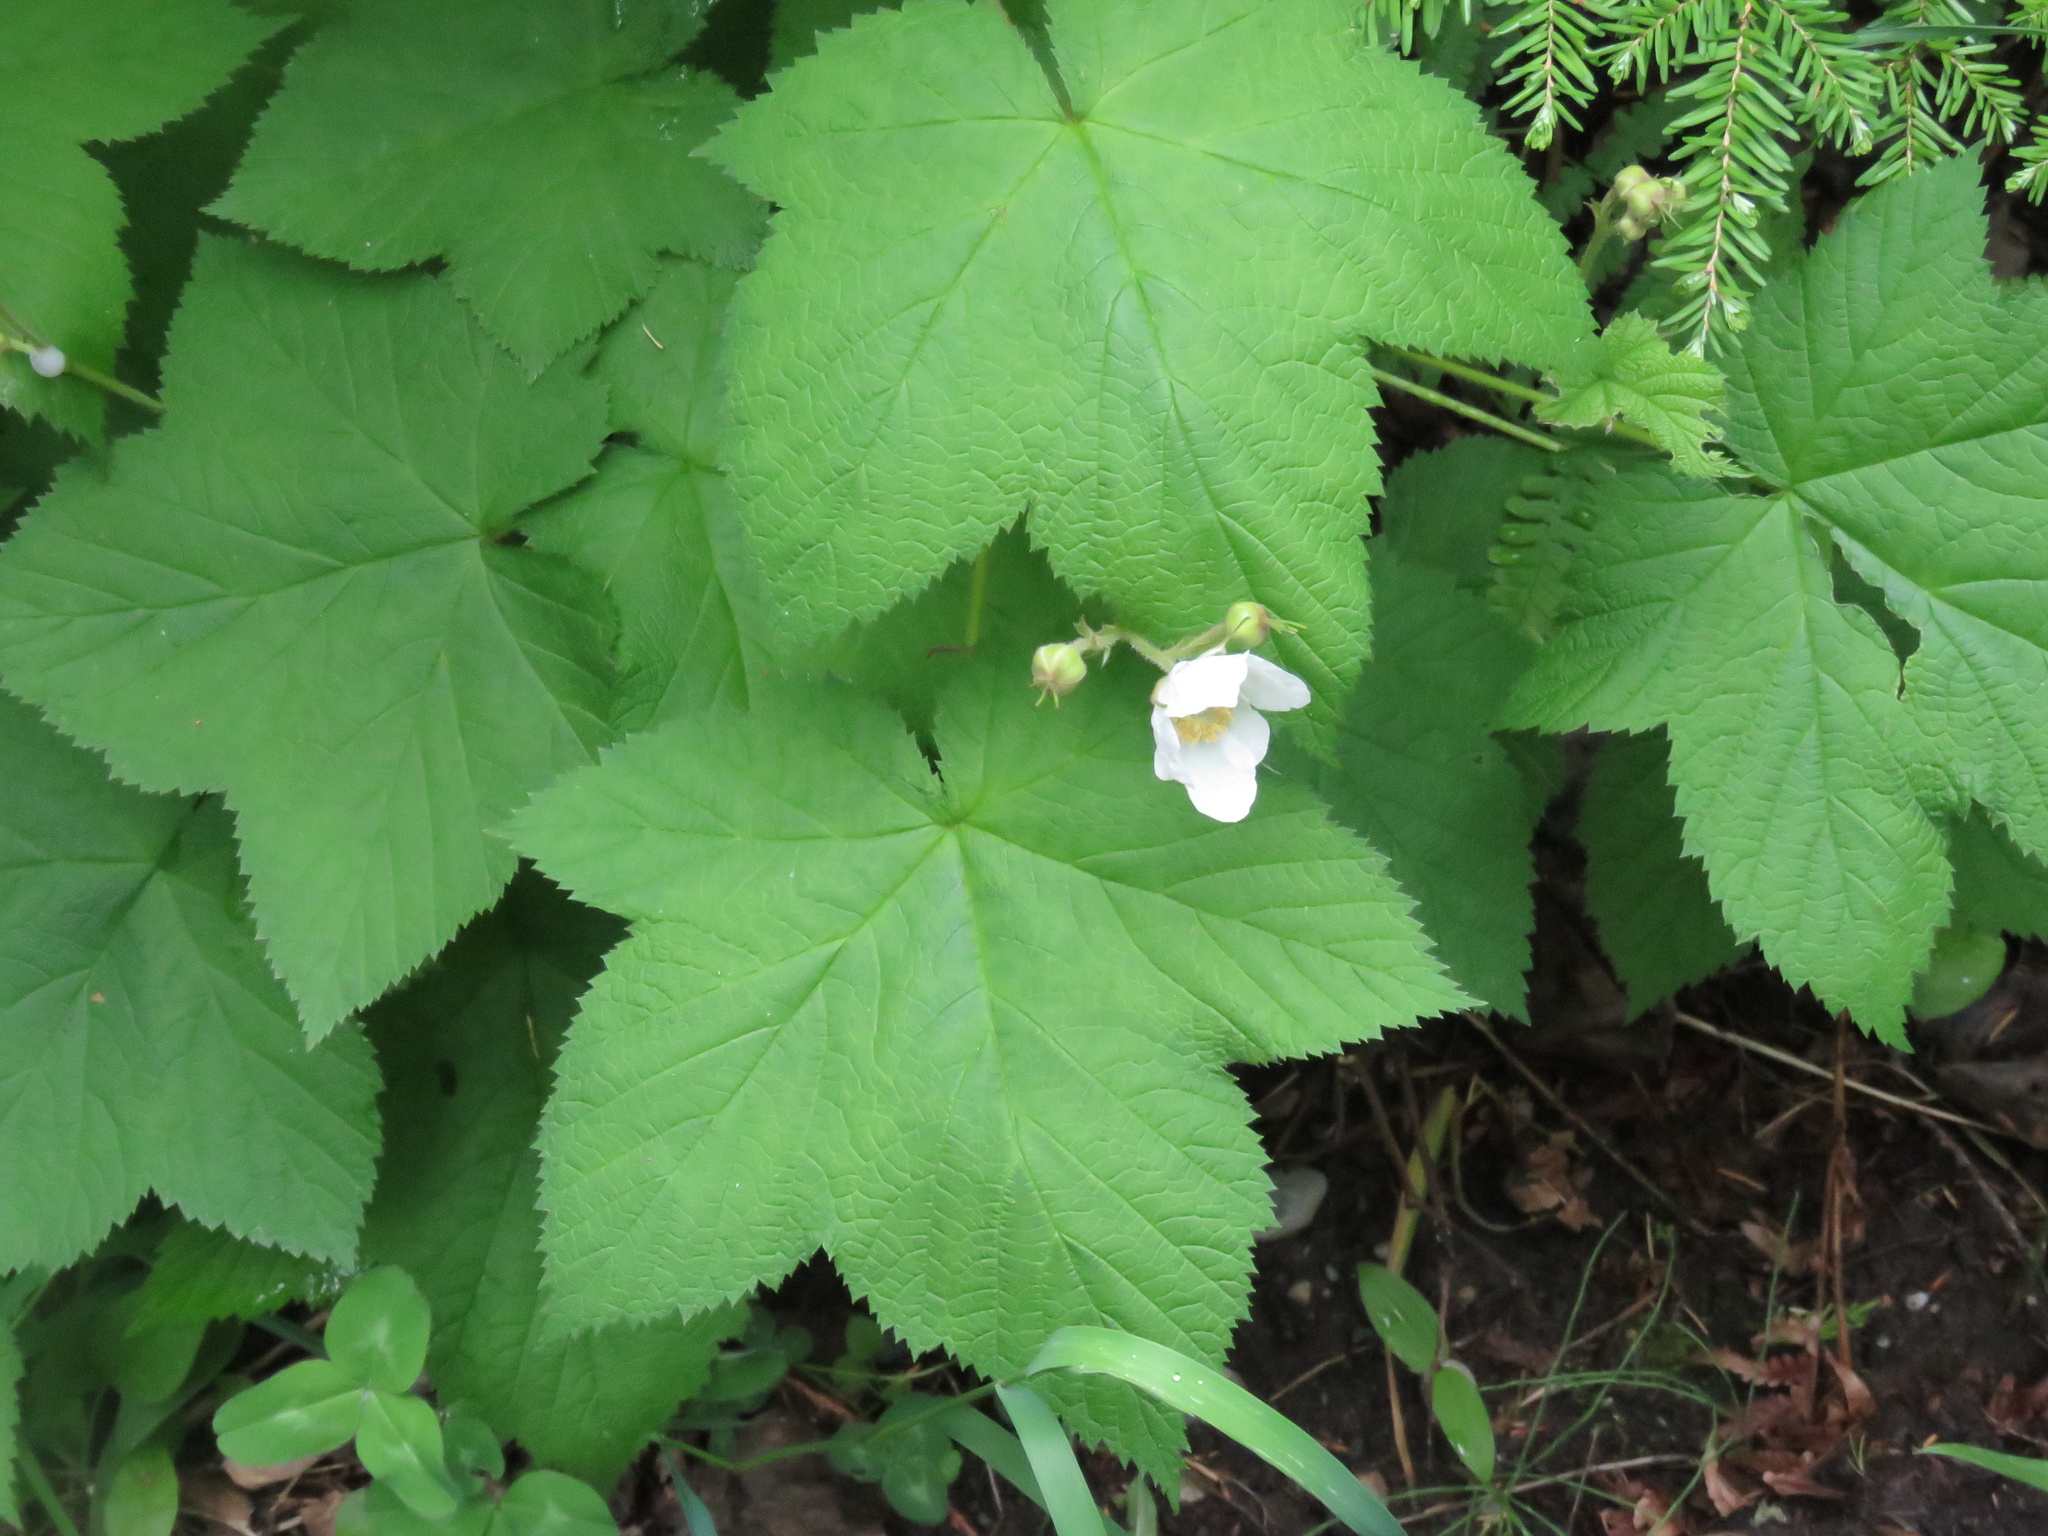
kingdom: Plantae
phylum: Tracheophyta
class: Magnoliopsida
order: Rosales
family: Rosaceae
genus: Rubus
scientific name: Rubus parviflorus
